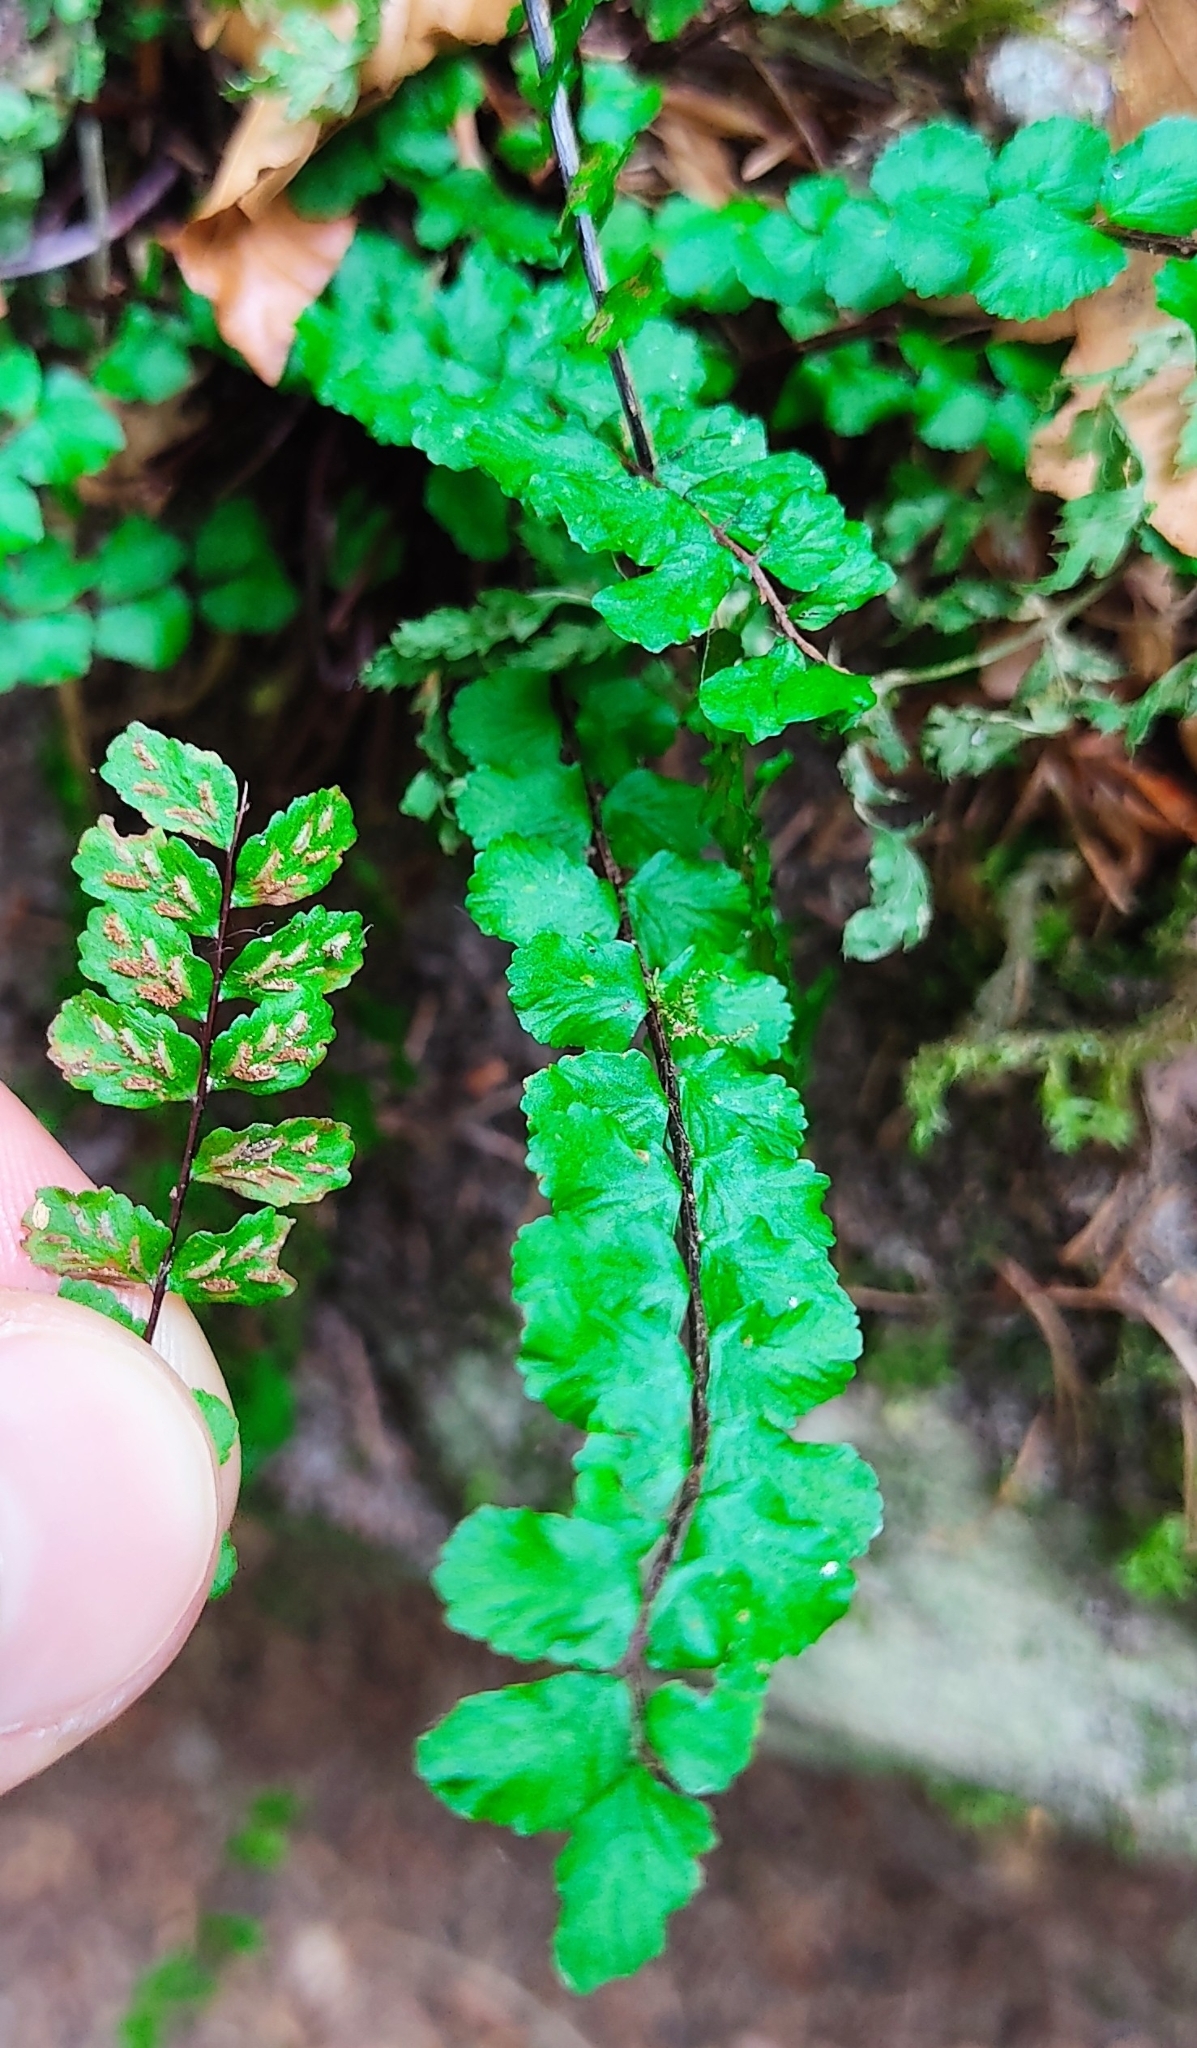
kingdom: Plantae
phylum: Tracheophyta
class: Polypodiopsida
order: Polypodiales
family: Aspleniaceae
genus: Asplenium
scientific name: Asplenium trichomanes
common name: Maidenhair spleenwort
